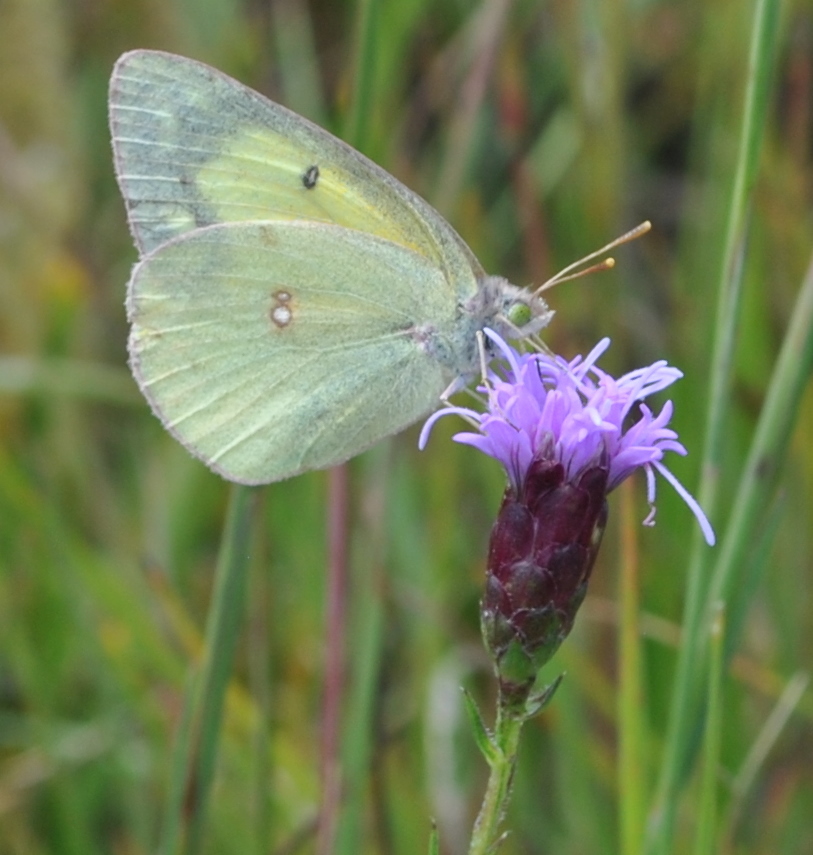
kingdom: Animalia
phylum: Arthropoda
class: Insecta
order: Lepidoptera
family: Pieridae
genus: Colias
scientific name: Colias philodice
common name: Clouded sulphur
